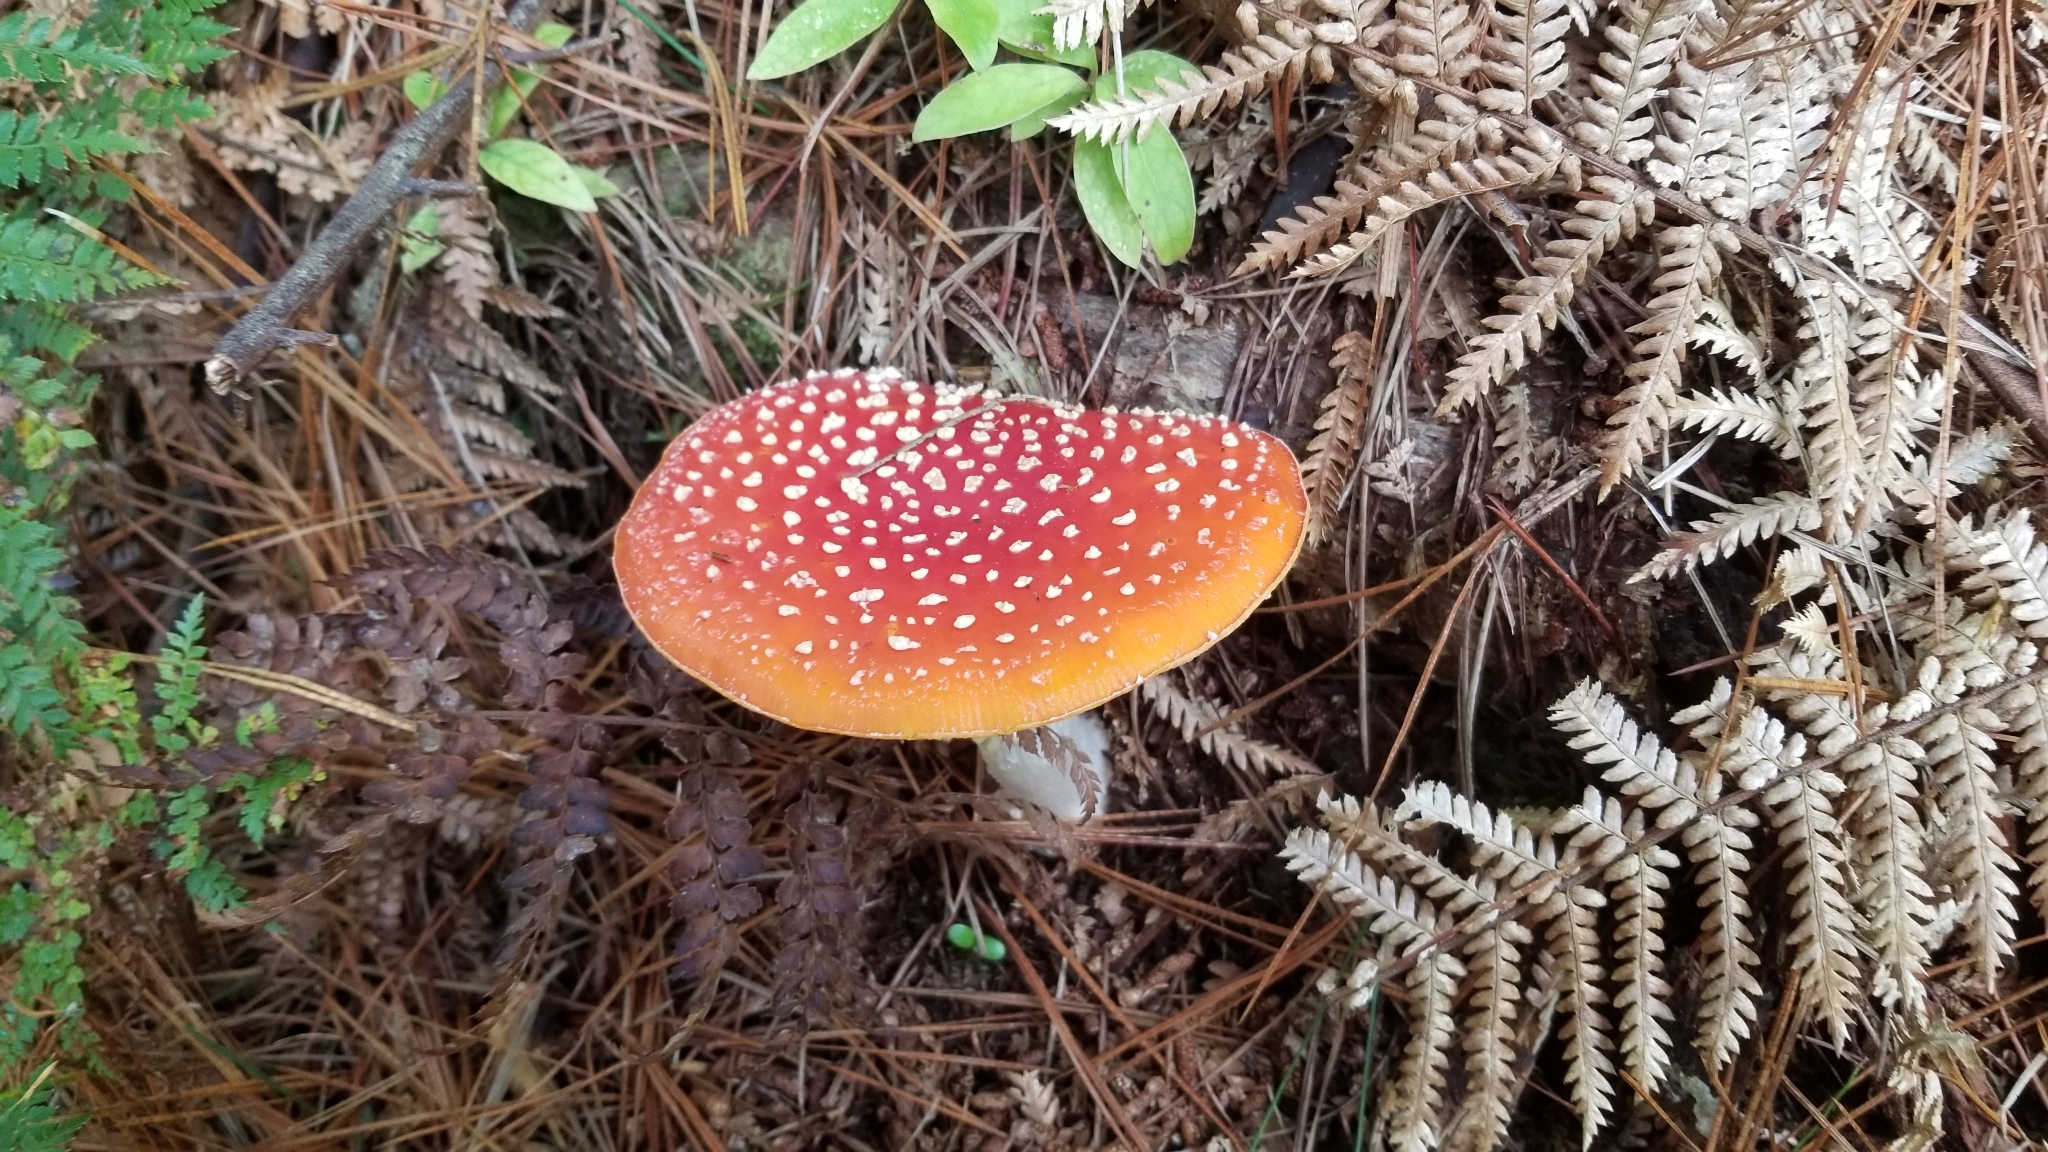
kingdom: Fungi
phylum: Basidiomycota
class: Agaricomycetes
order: Agaricales
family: Amanitaceae
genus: Amanita
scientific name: Amanita muscaria
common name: Fly agaric
